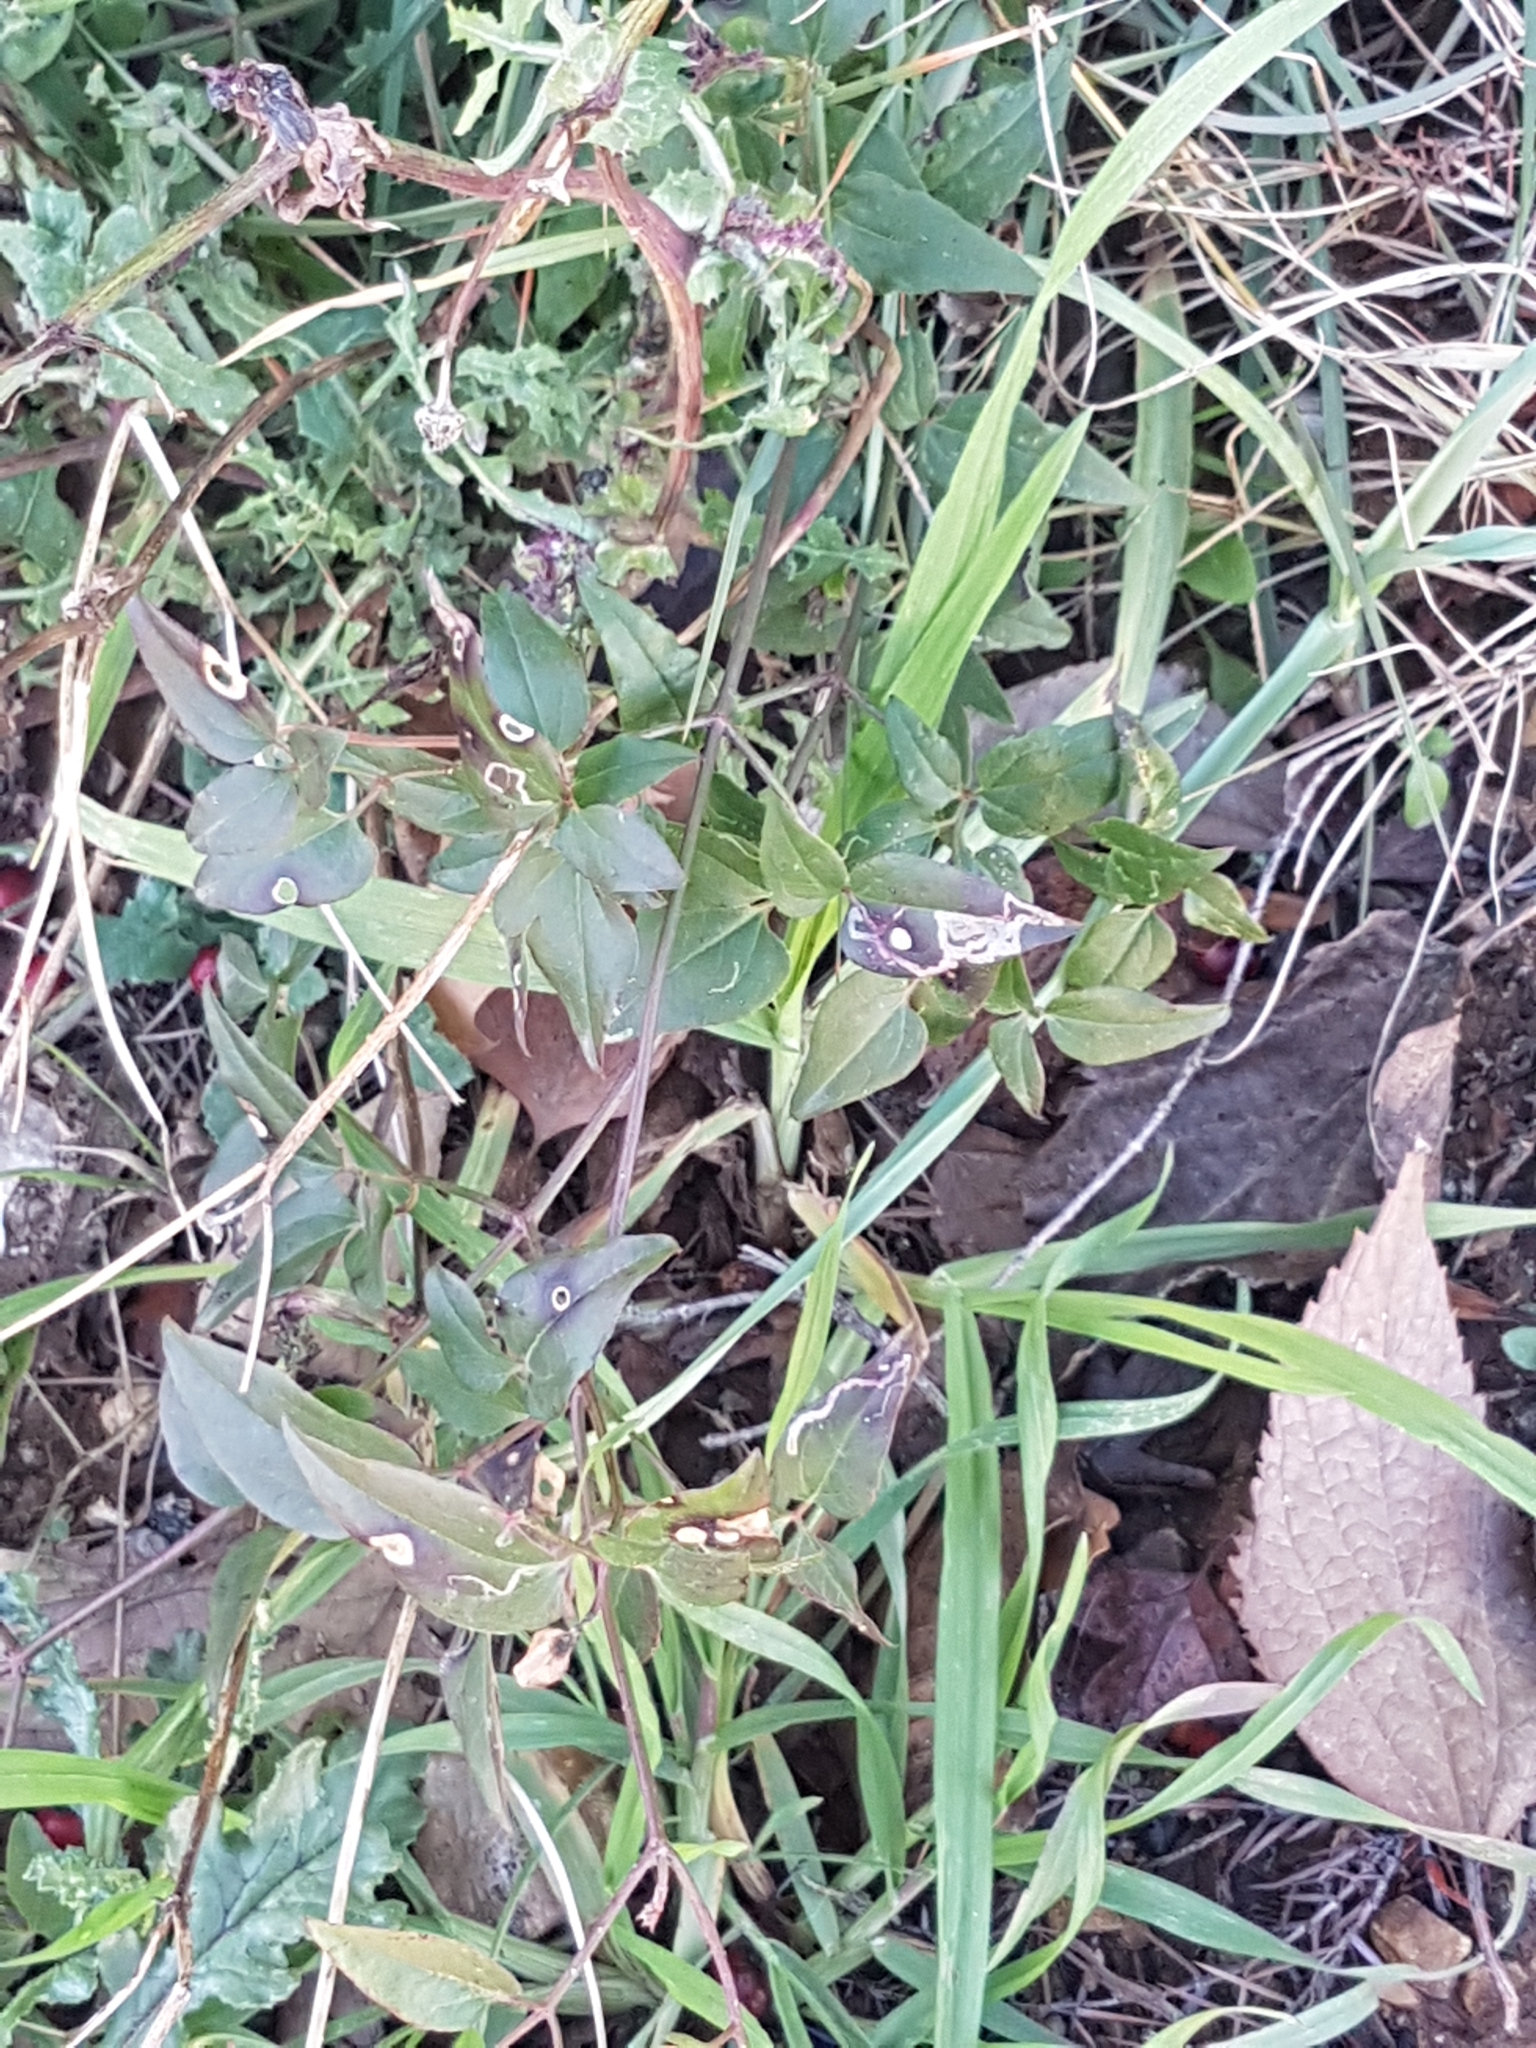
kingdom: Plantae
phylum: Tracheophyta
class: Magnoliopsida
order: Ranunculales
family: Ranunculaceae
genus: Clematis
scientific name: Clematis flammula
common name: Virgin's-bower
